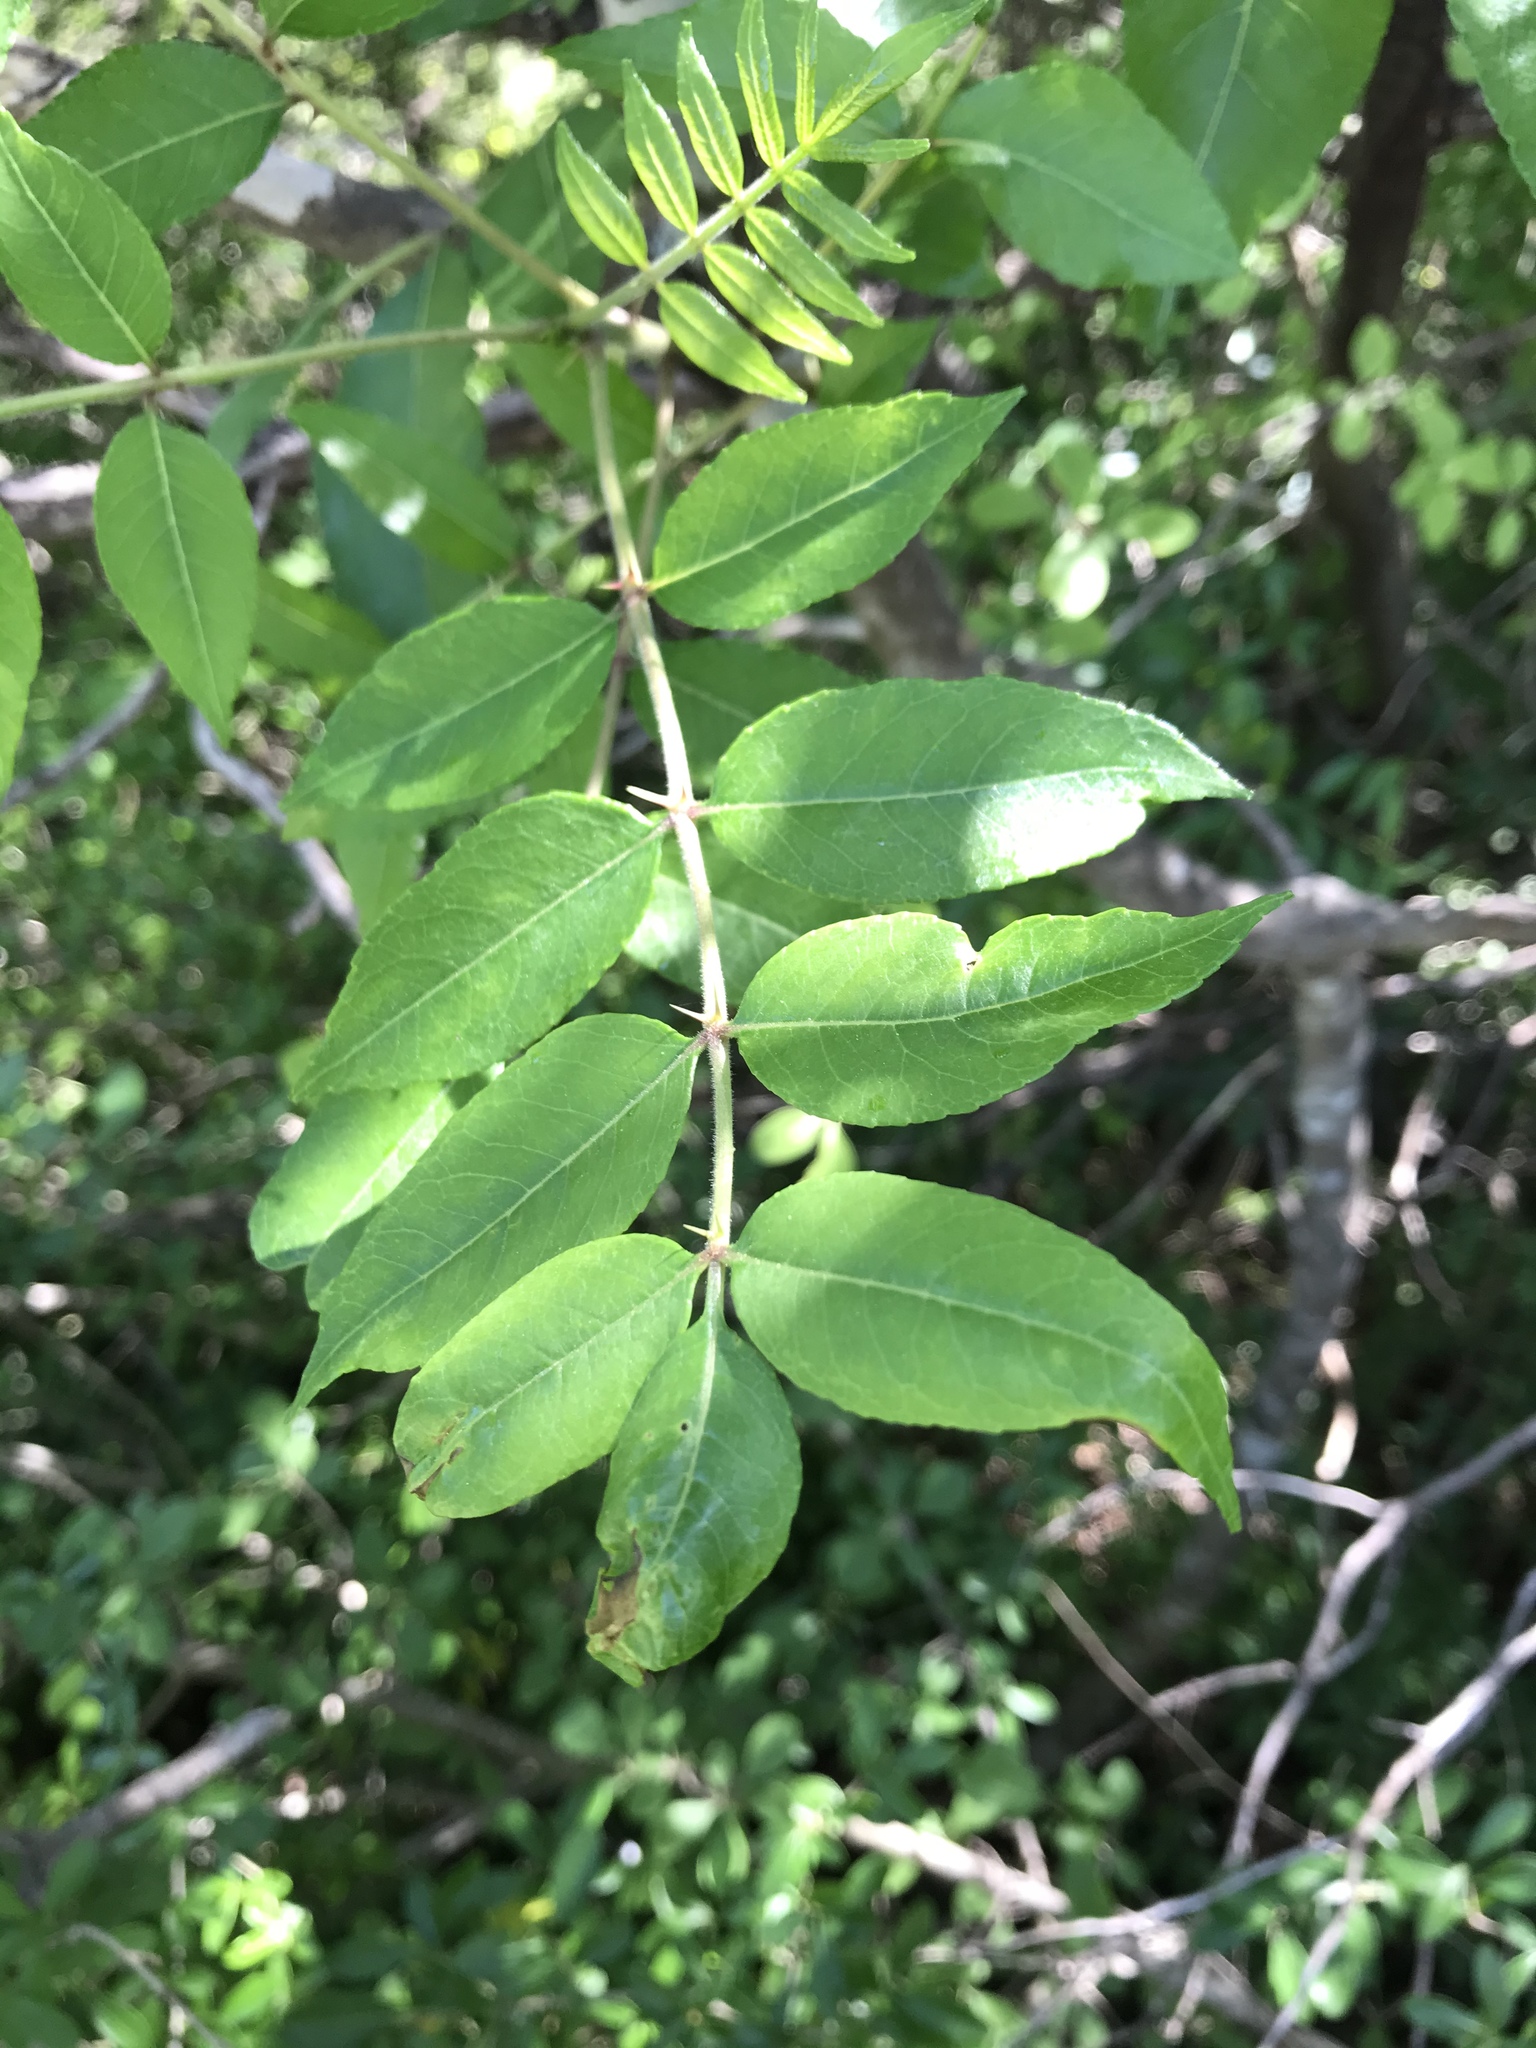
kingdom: Plantae
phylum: Tracheophyta
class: Magnoliopsida
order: Sapindales
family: Rutaceae
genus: Zanthoxylum
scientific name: Zanthoxylum clava-herculis
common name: Hercules'-club
